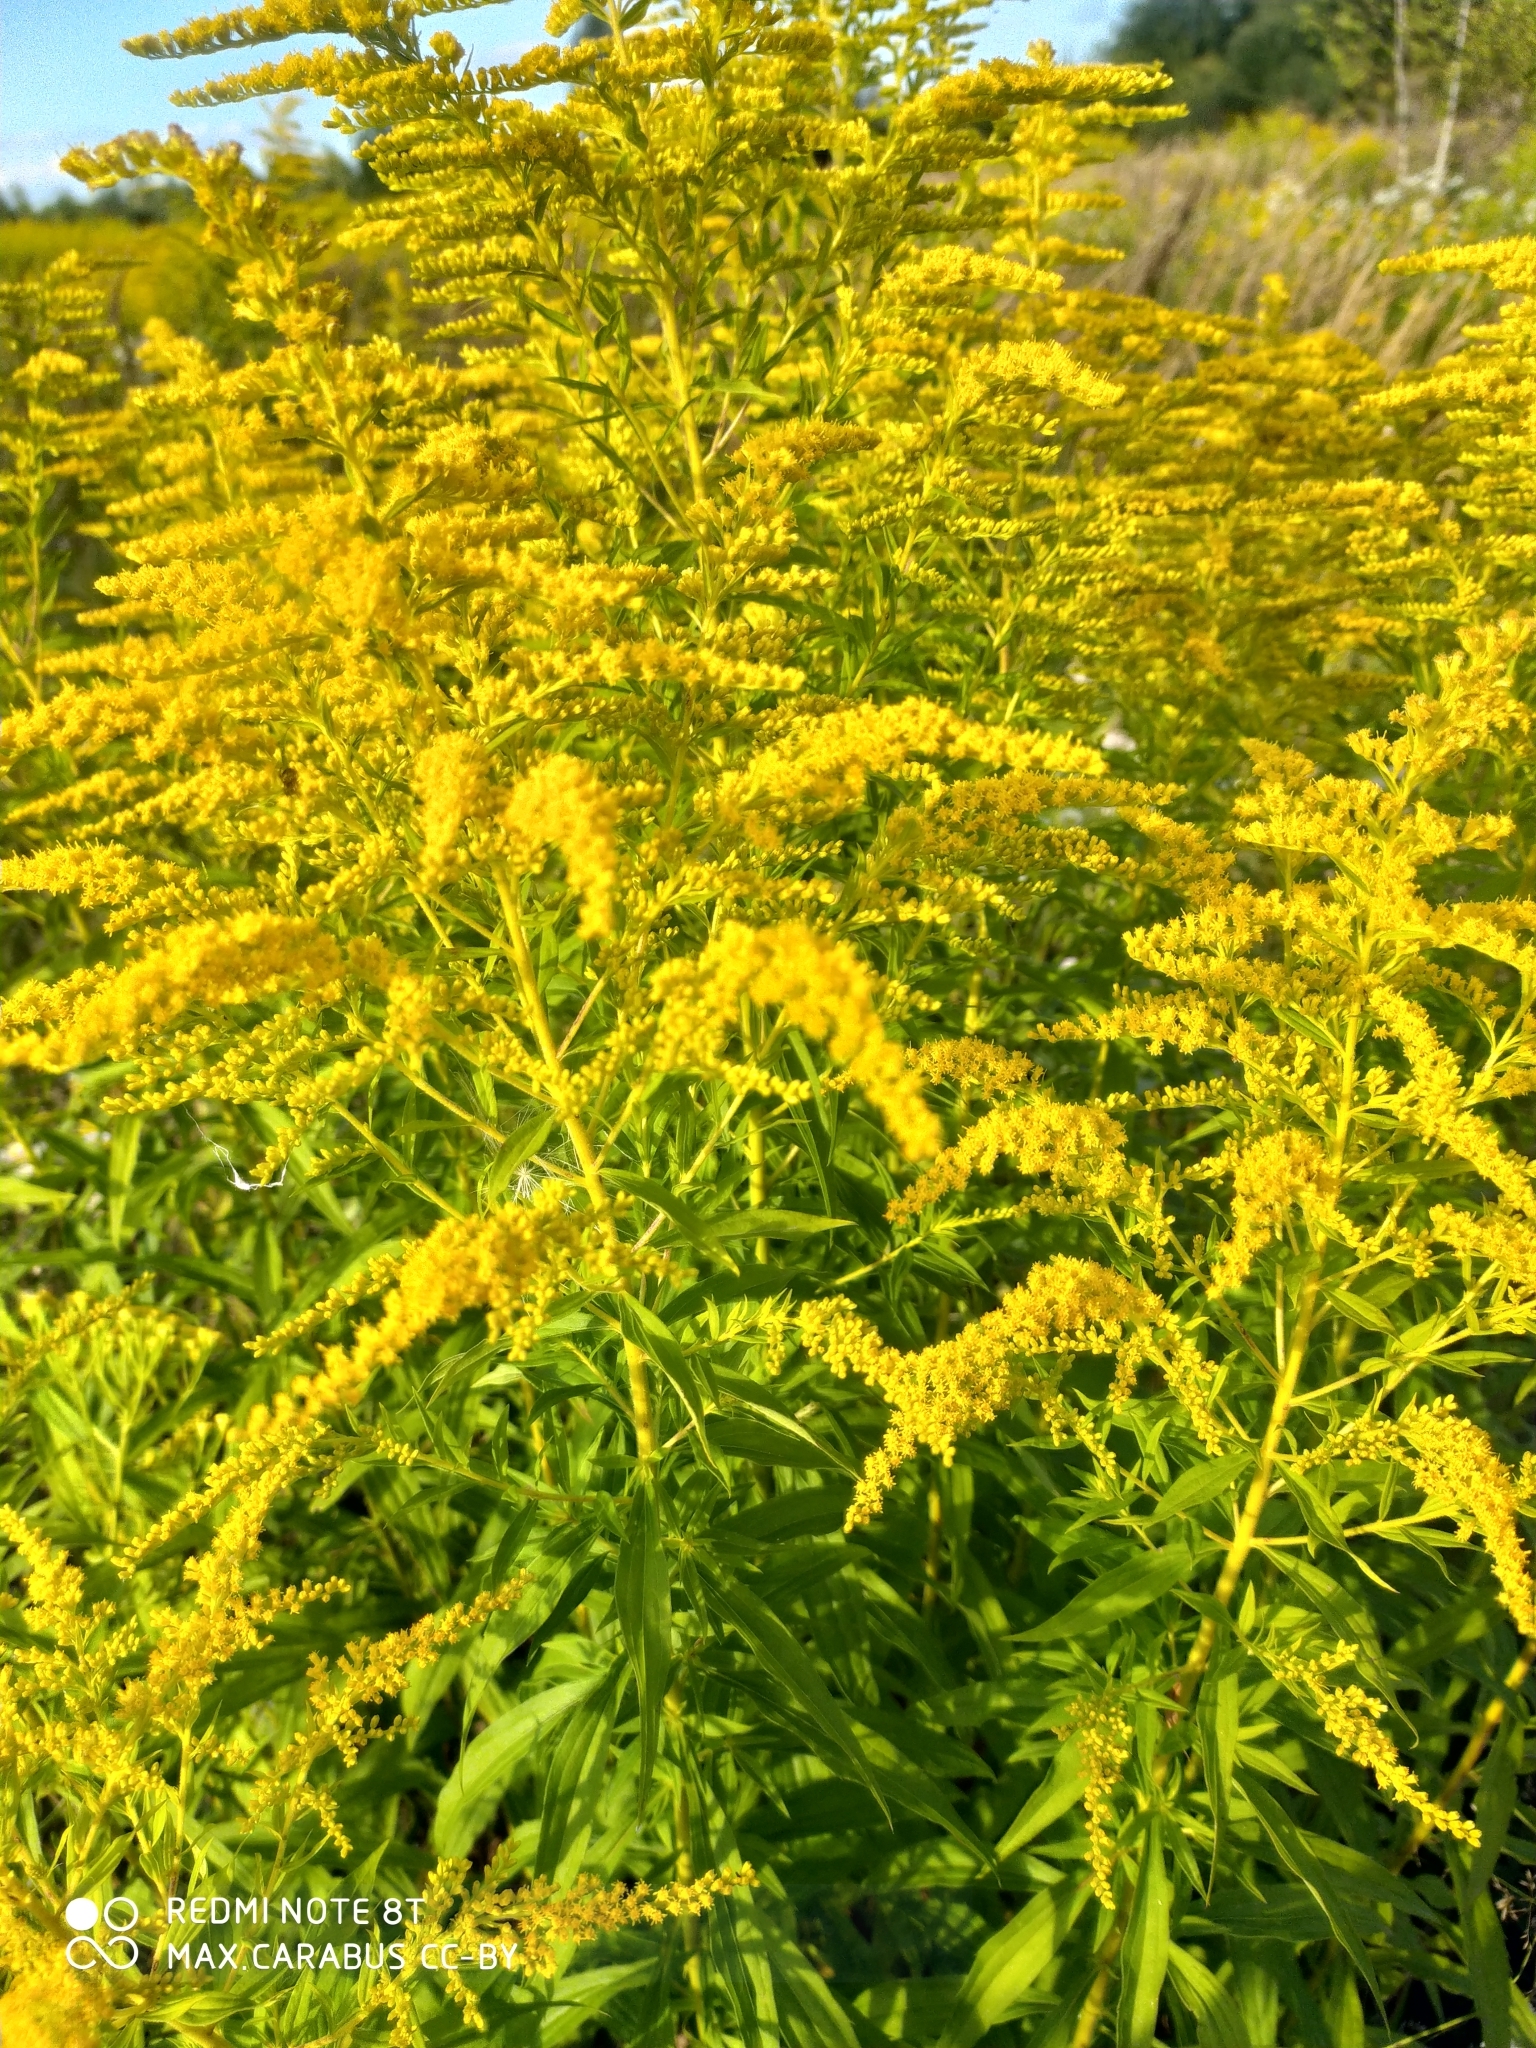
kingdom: Plantae
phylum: Tracheophyta
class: Magnoliopsida
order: Asterales
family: Asteraceae
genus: Solidago
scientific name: Solidago canadensis
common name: Canada goldenrod
